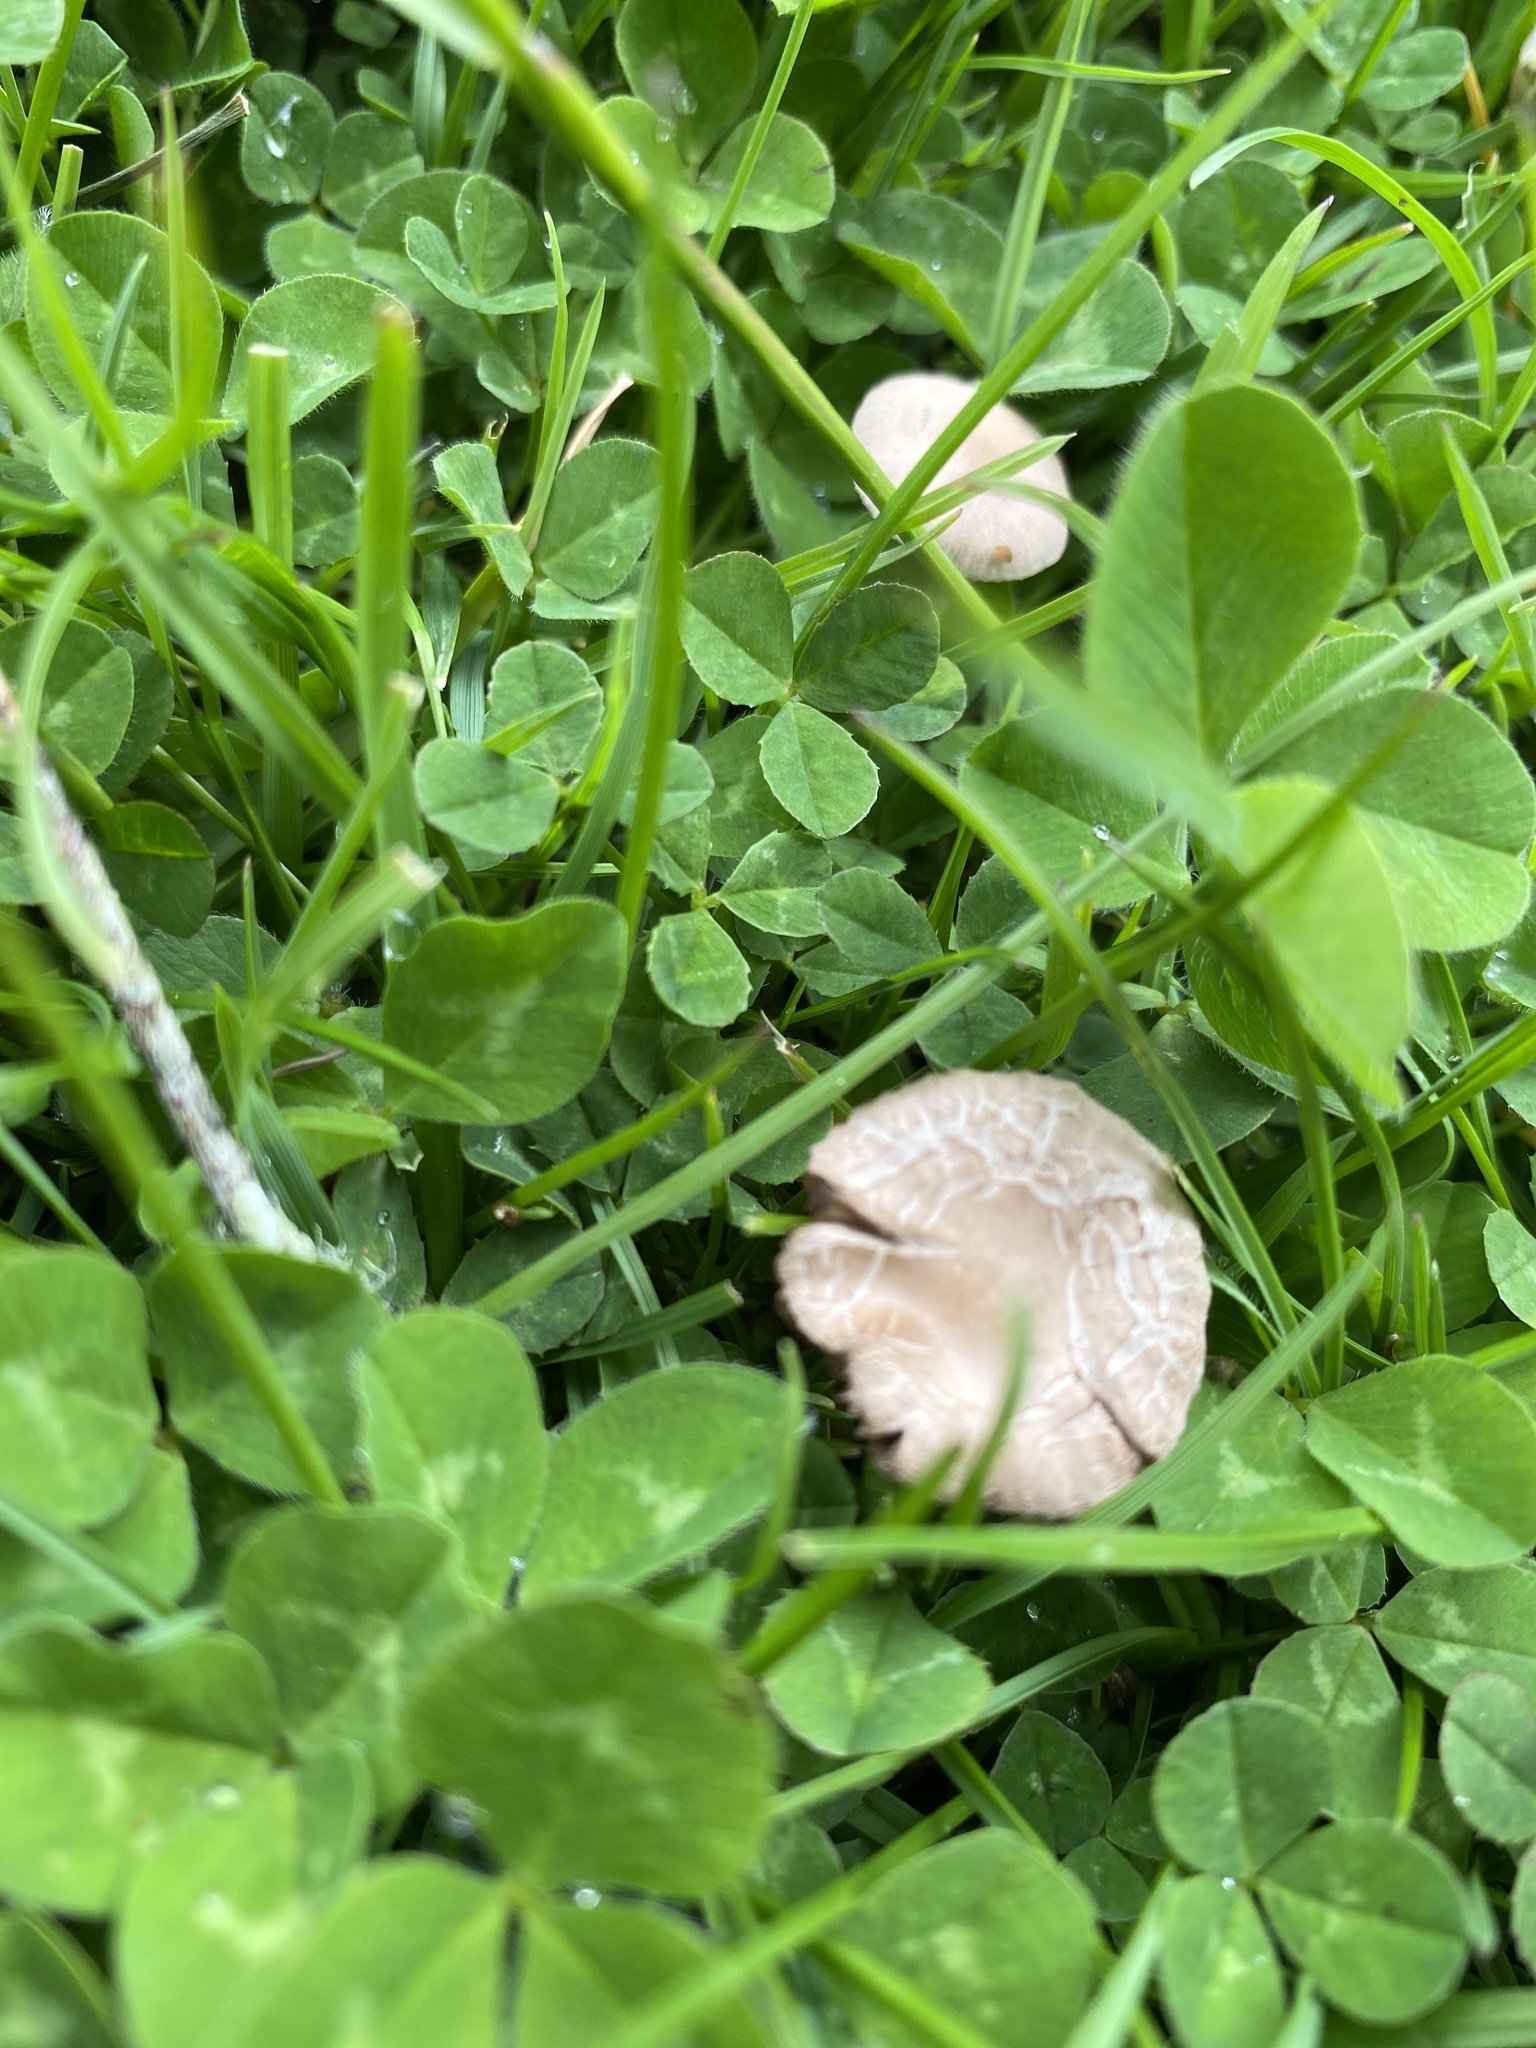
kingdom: Fungi
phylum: Basidiomycota
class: Agaricomycetes
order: Agaricales
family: Bolbitiaceae
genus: Panaeolina
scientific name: Panaeolina foenisecii
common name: Brown hay cap
